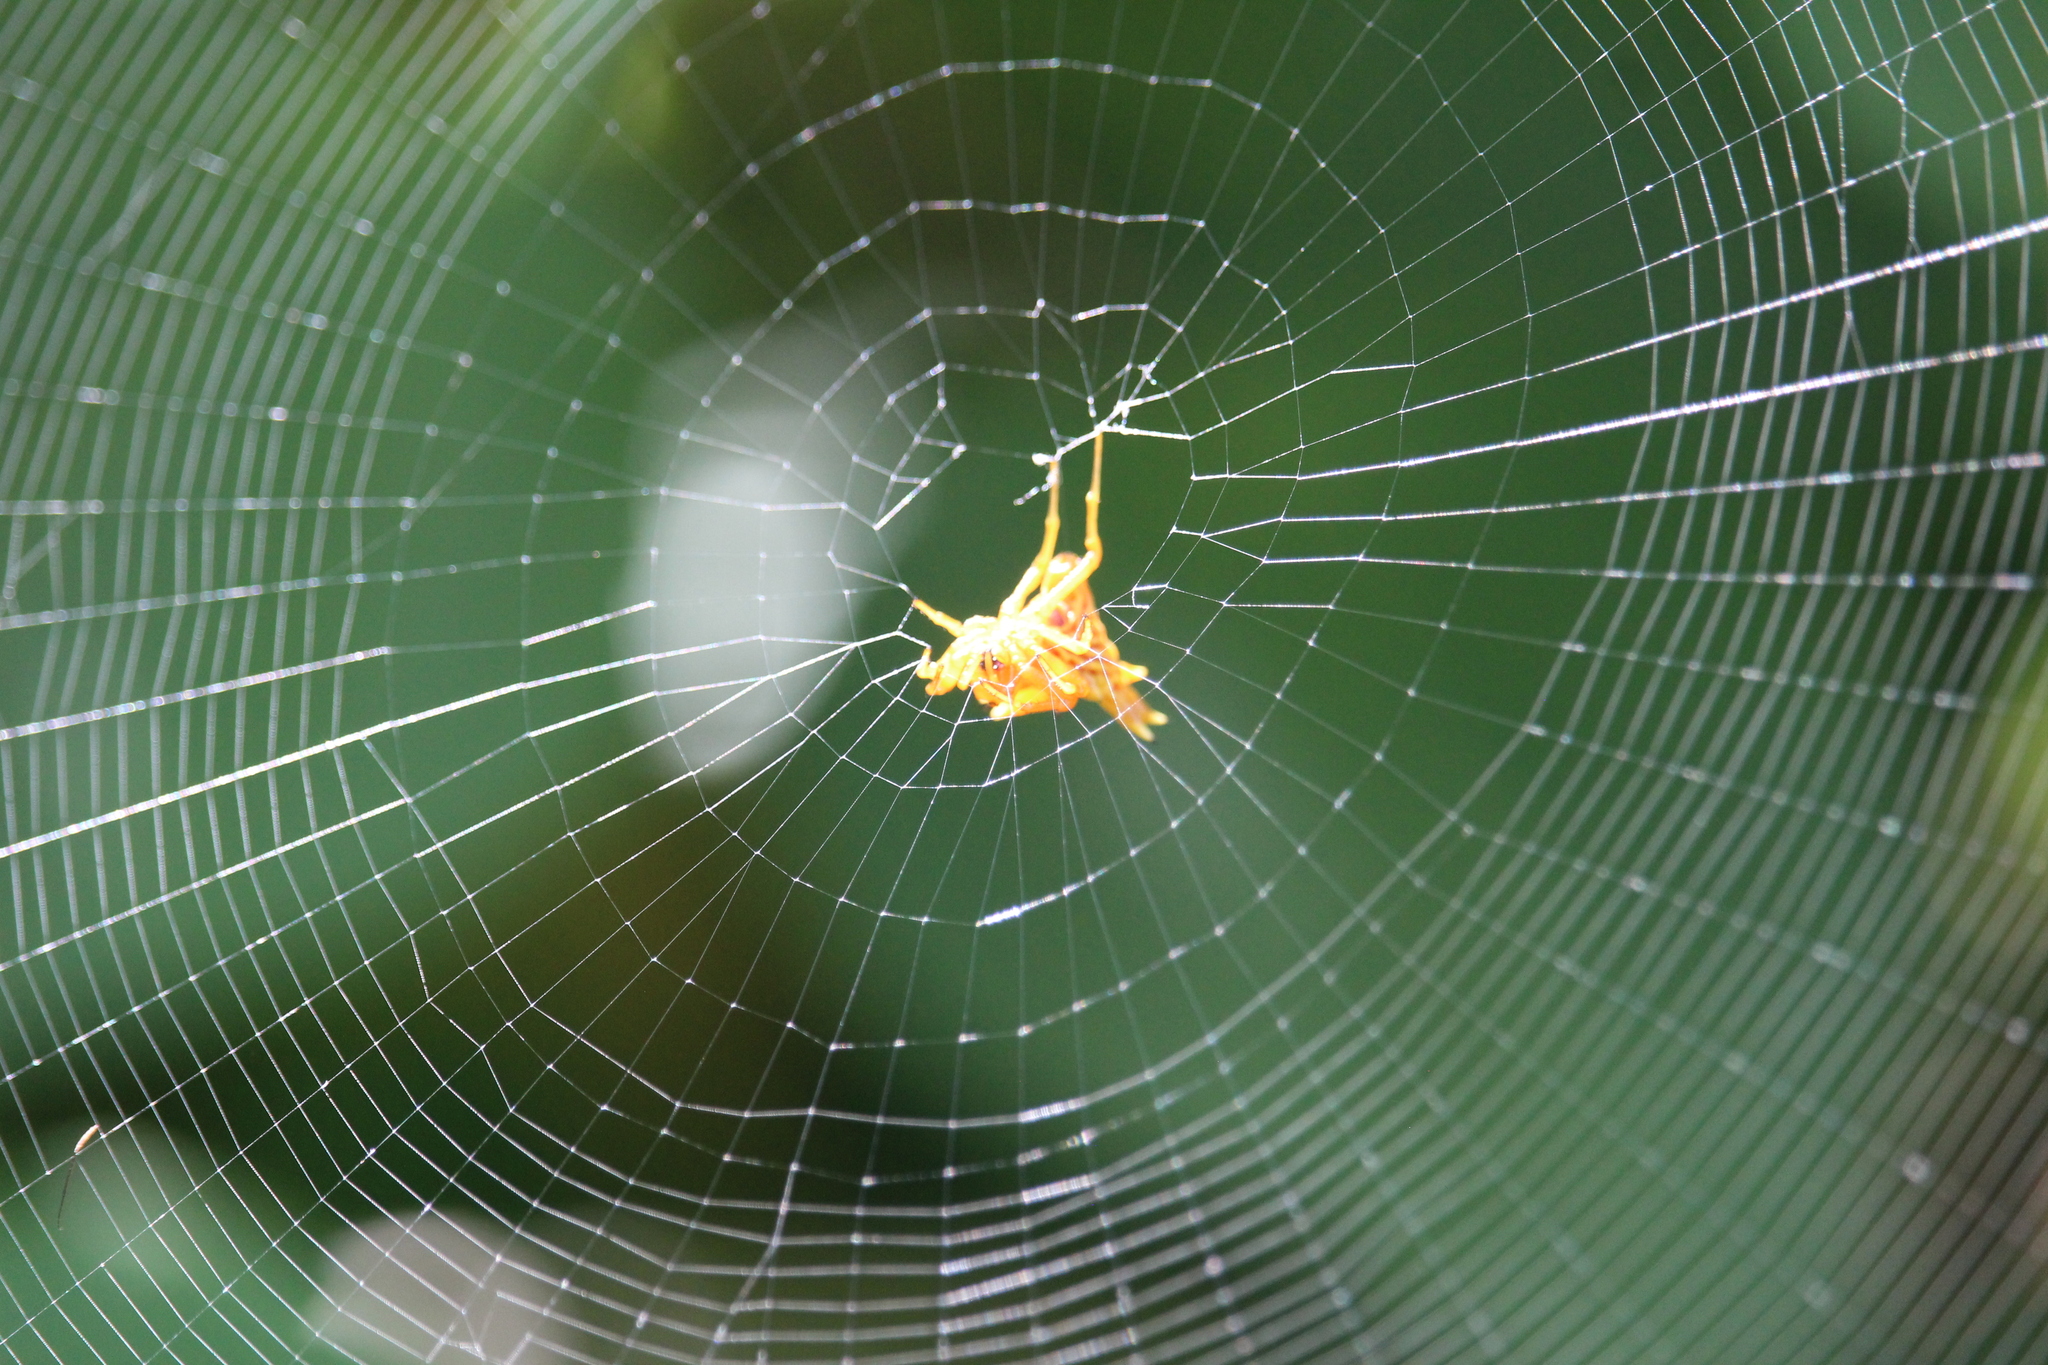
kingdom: Animalia
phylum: Arthropoda
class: Arachnida
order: Araneae
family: Araneidae
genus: Micrathena
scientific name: Micrathena gracilis
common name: Orb weavers
